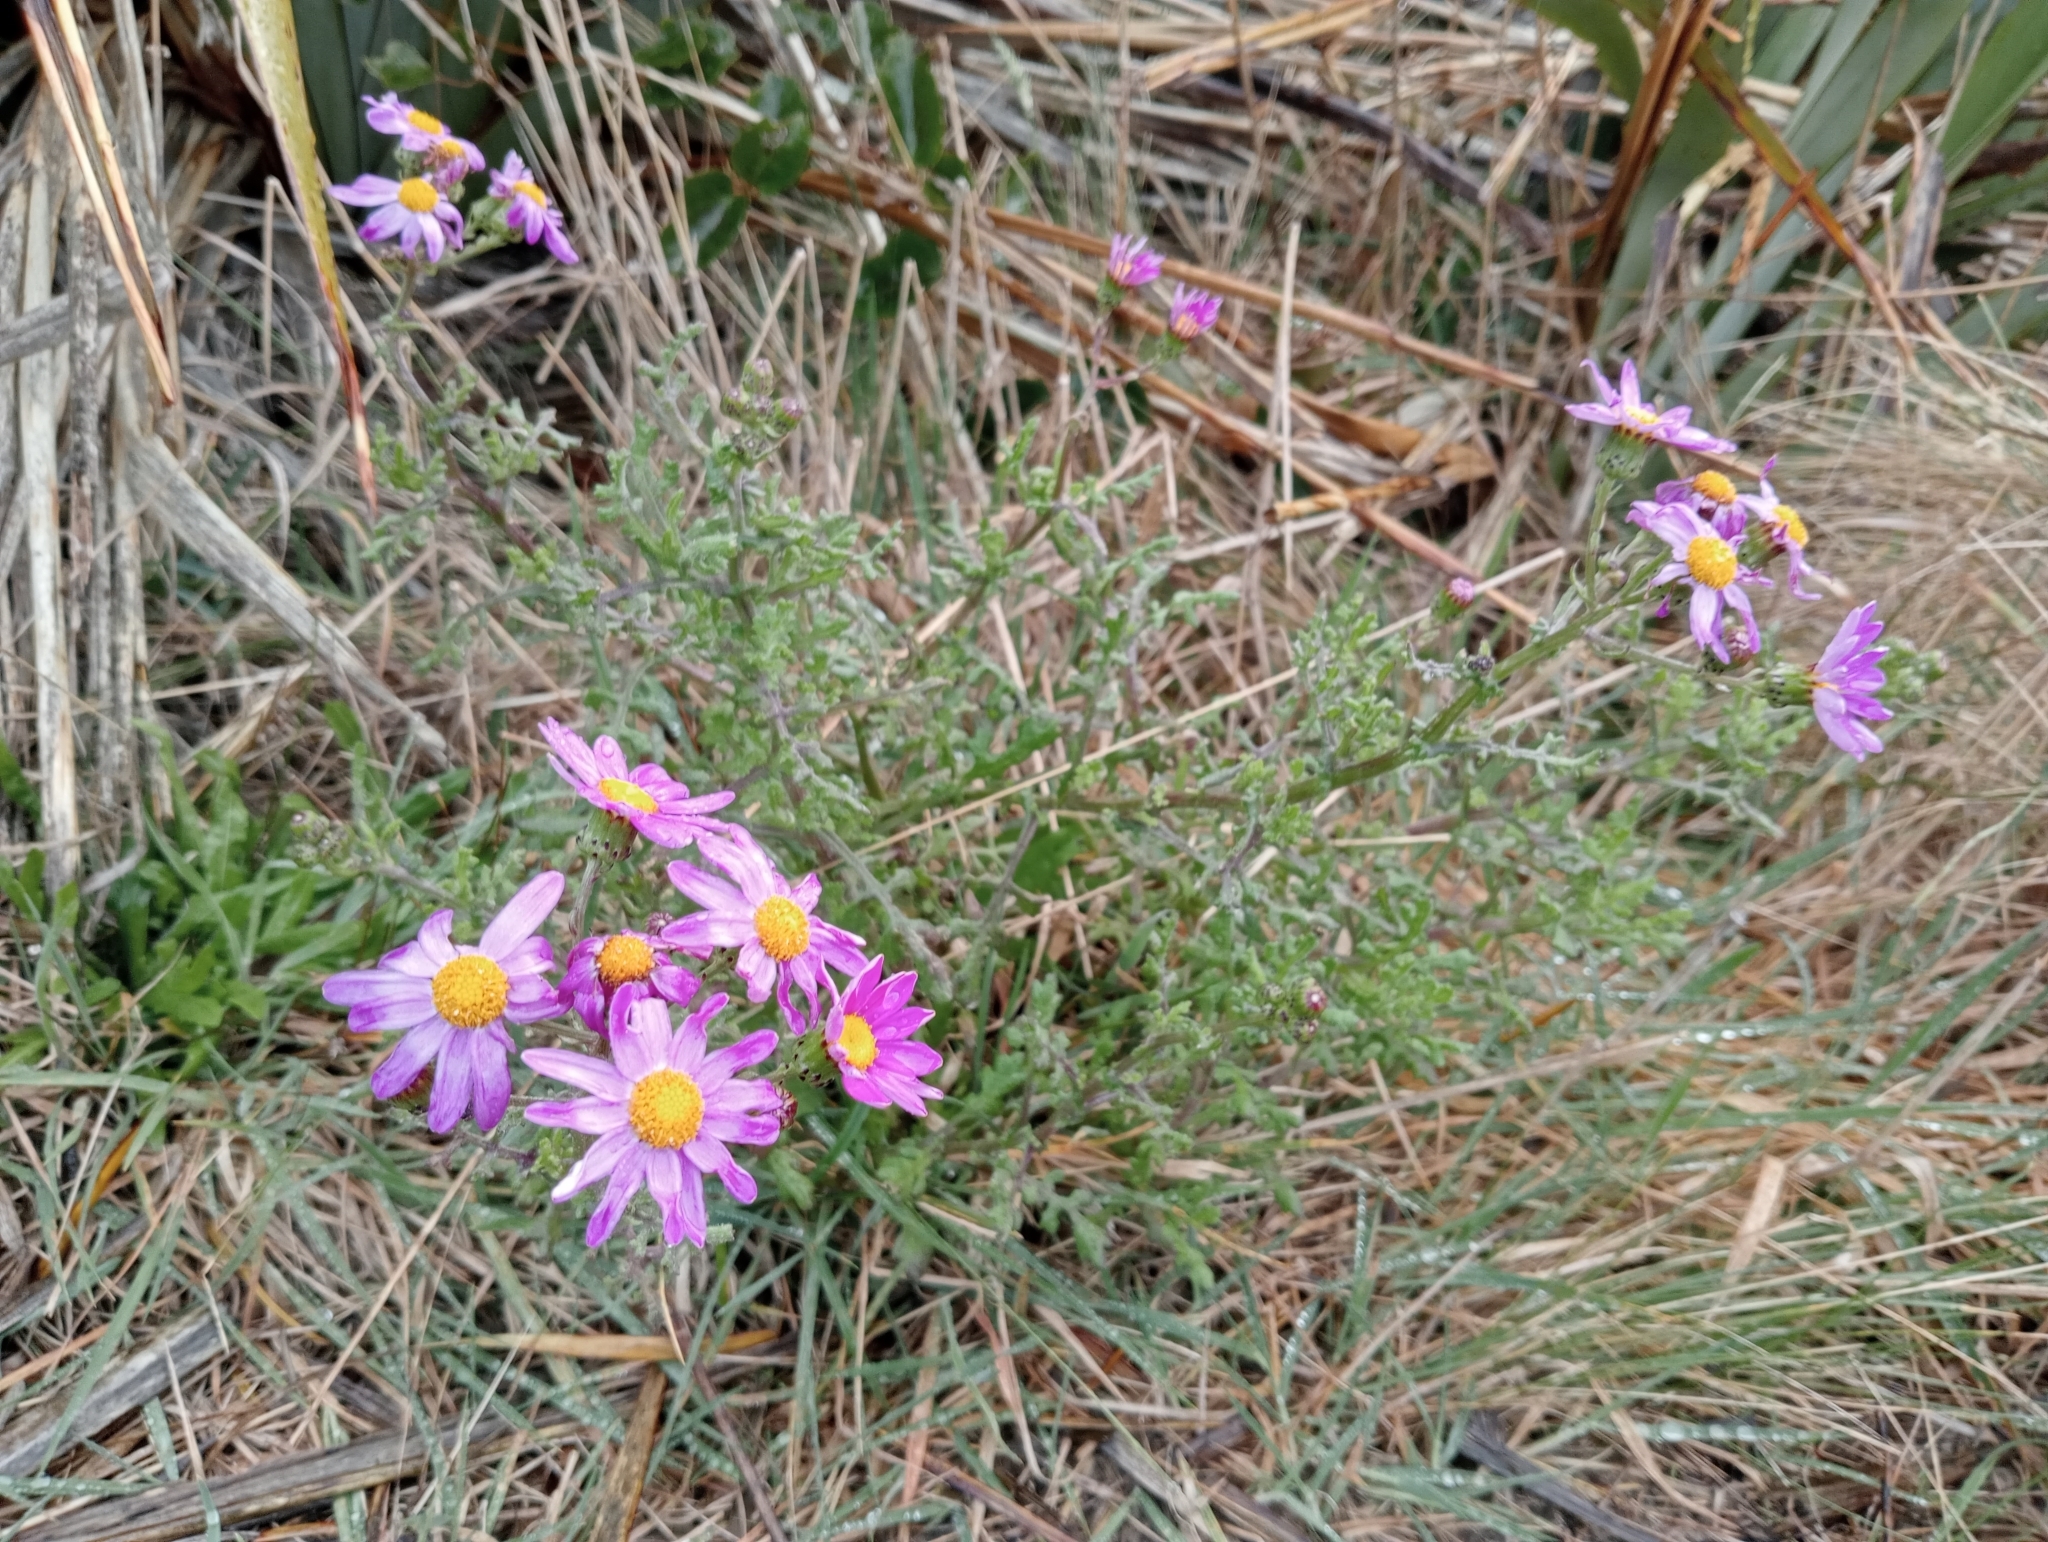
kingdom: Plantae
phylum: Tracheophyta
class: Magnoliopsida
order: Asterales
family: Asteraceae
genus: Senecio
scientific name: Senecio elegans
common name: Purple groundsel
